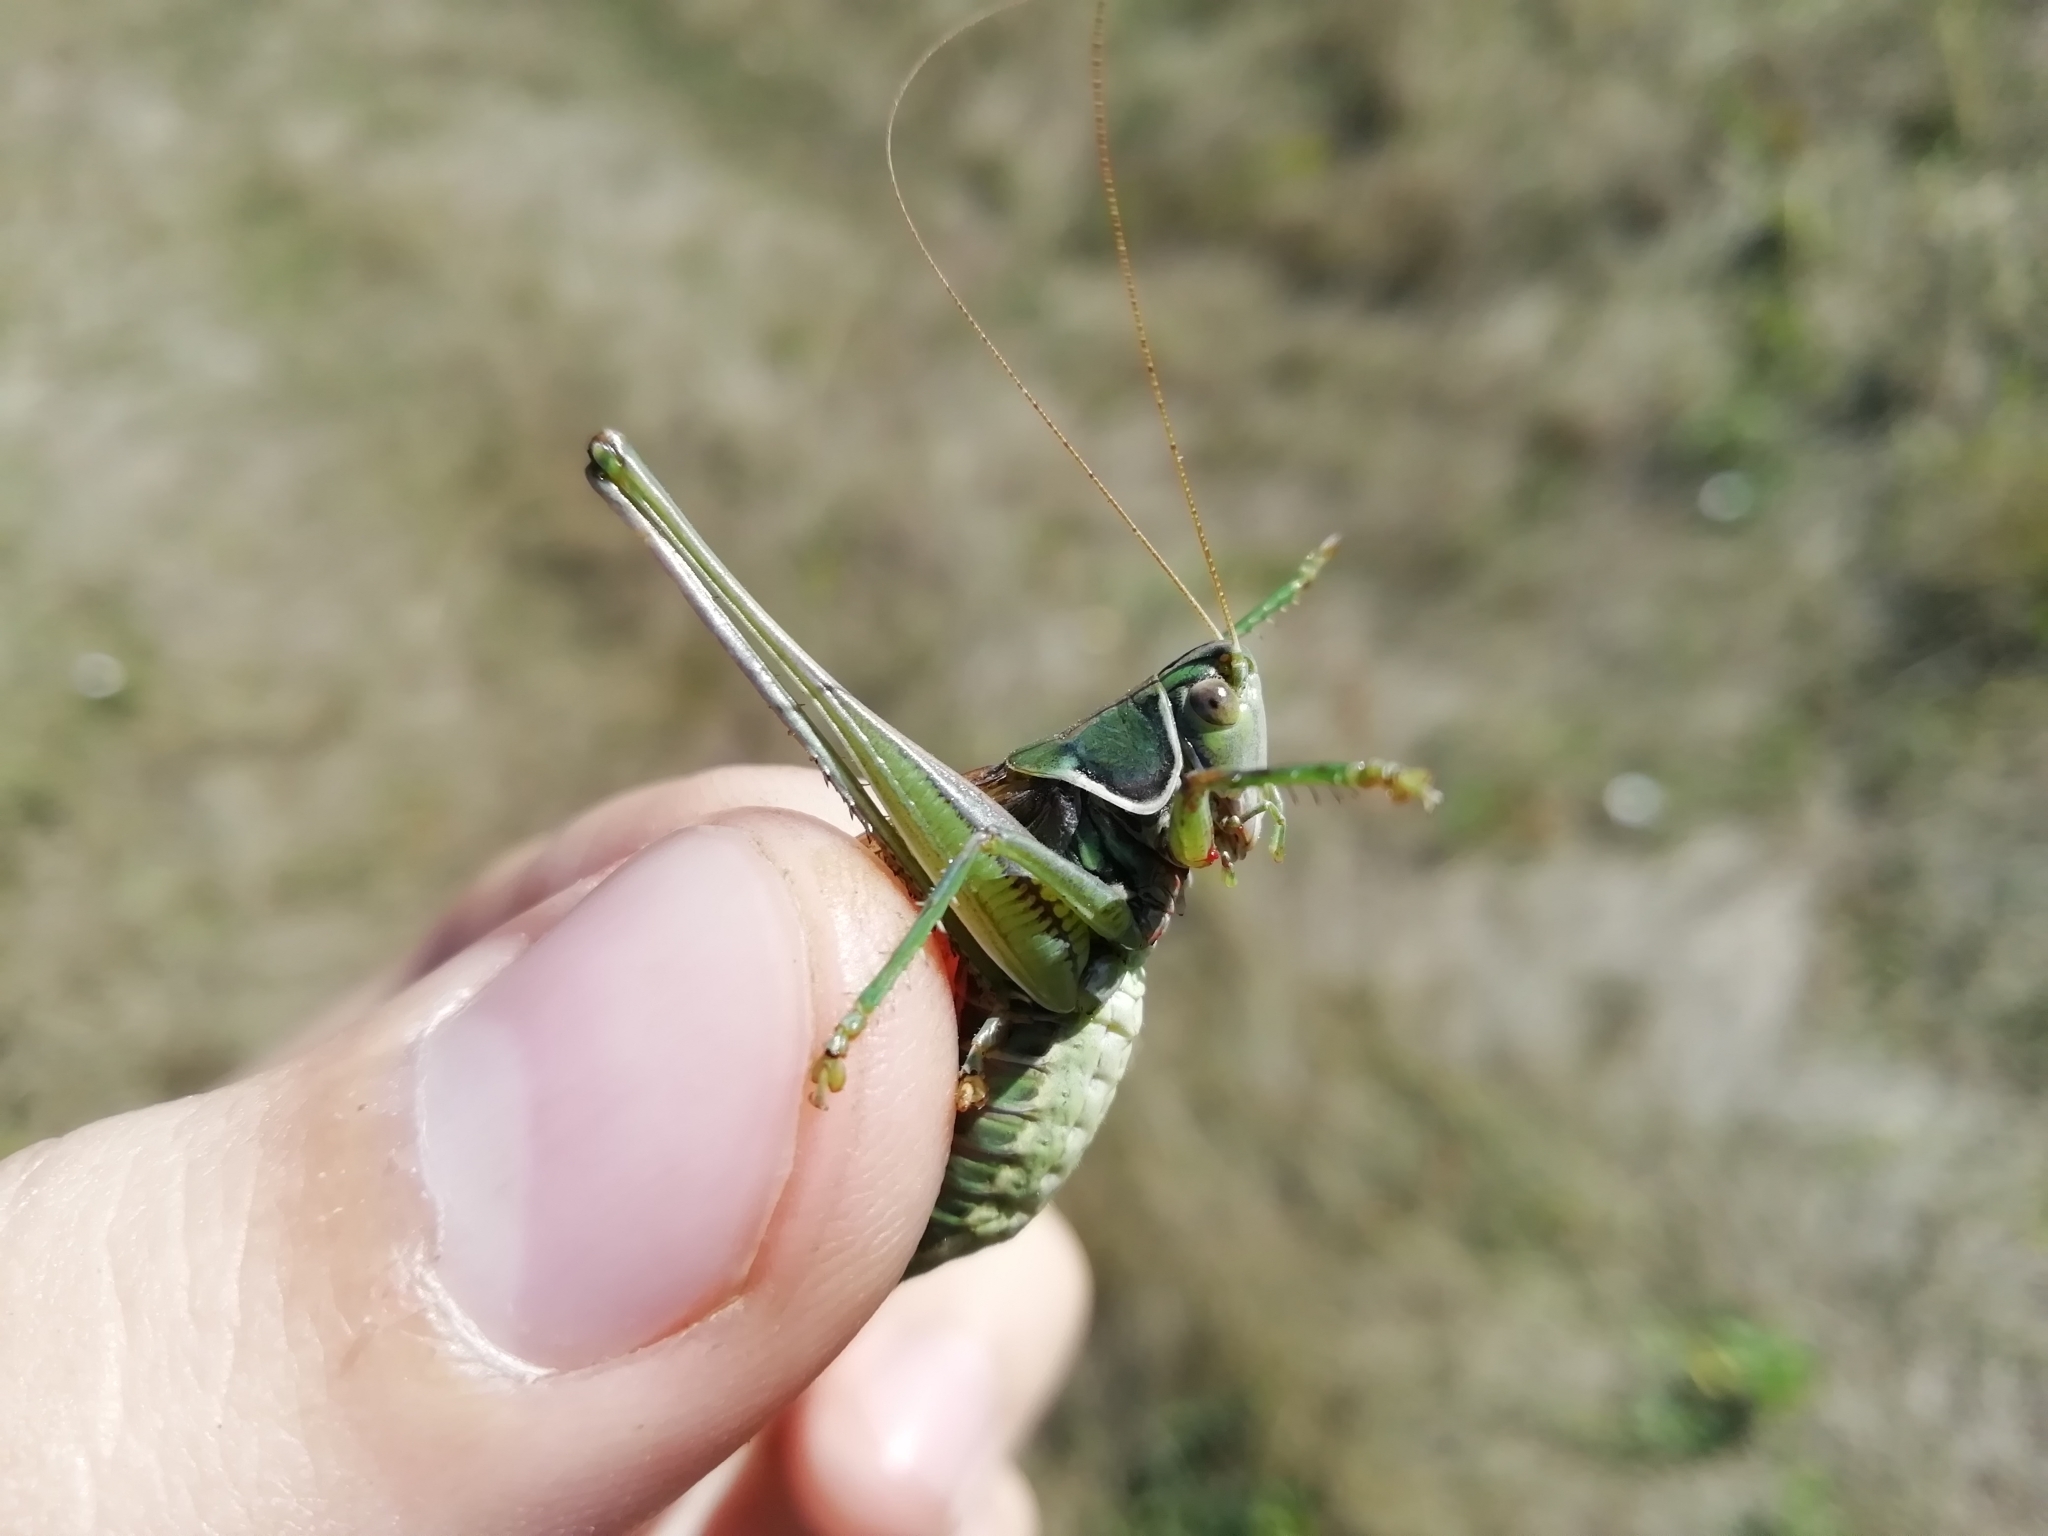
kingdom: Animalia
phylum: Arthropoda
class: Insecta
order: Orthoptera
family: Tettigoniidae
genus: Gampsocleis
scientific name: Gampsocleis glabra
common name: Heath bushcricket
